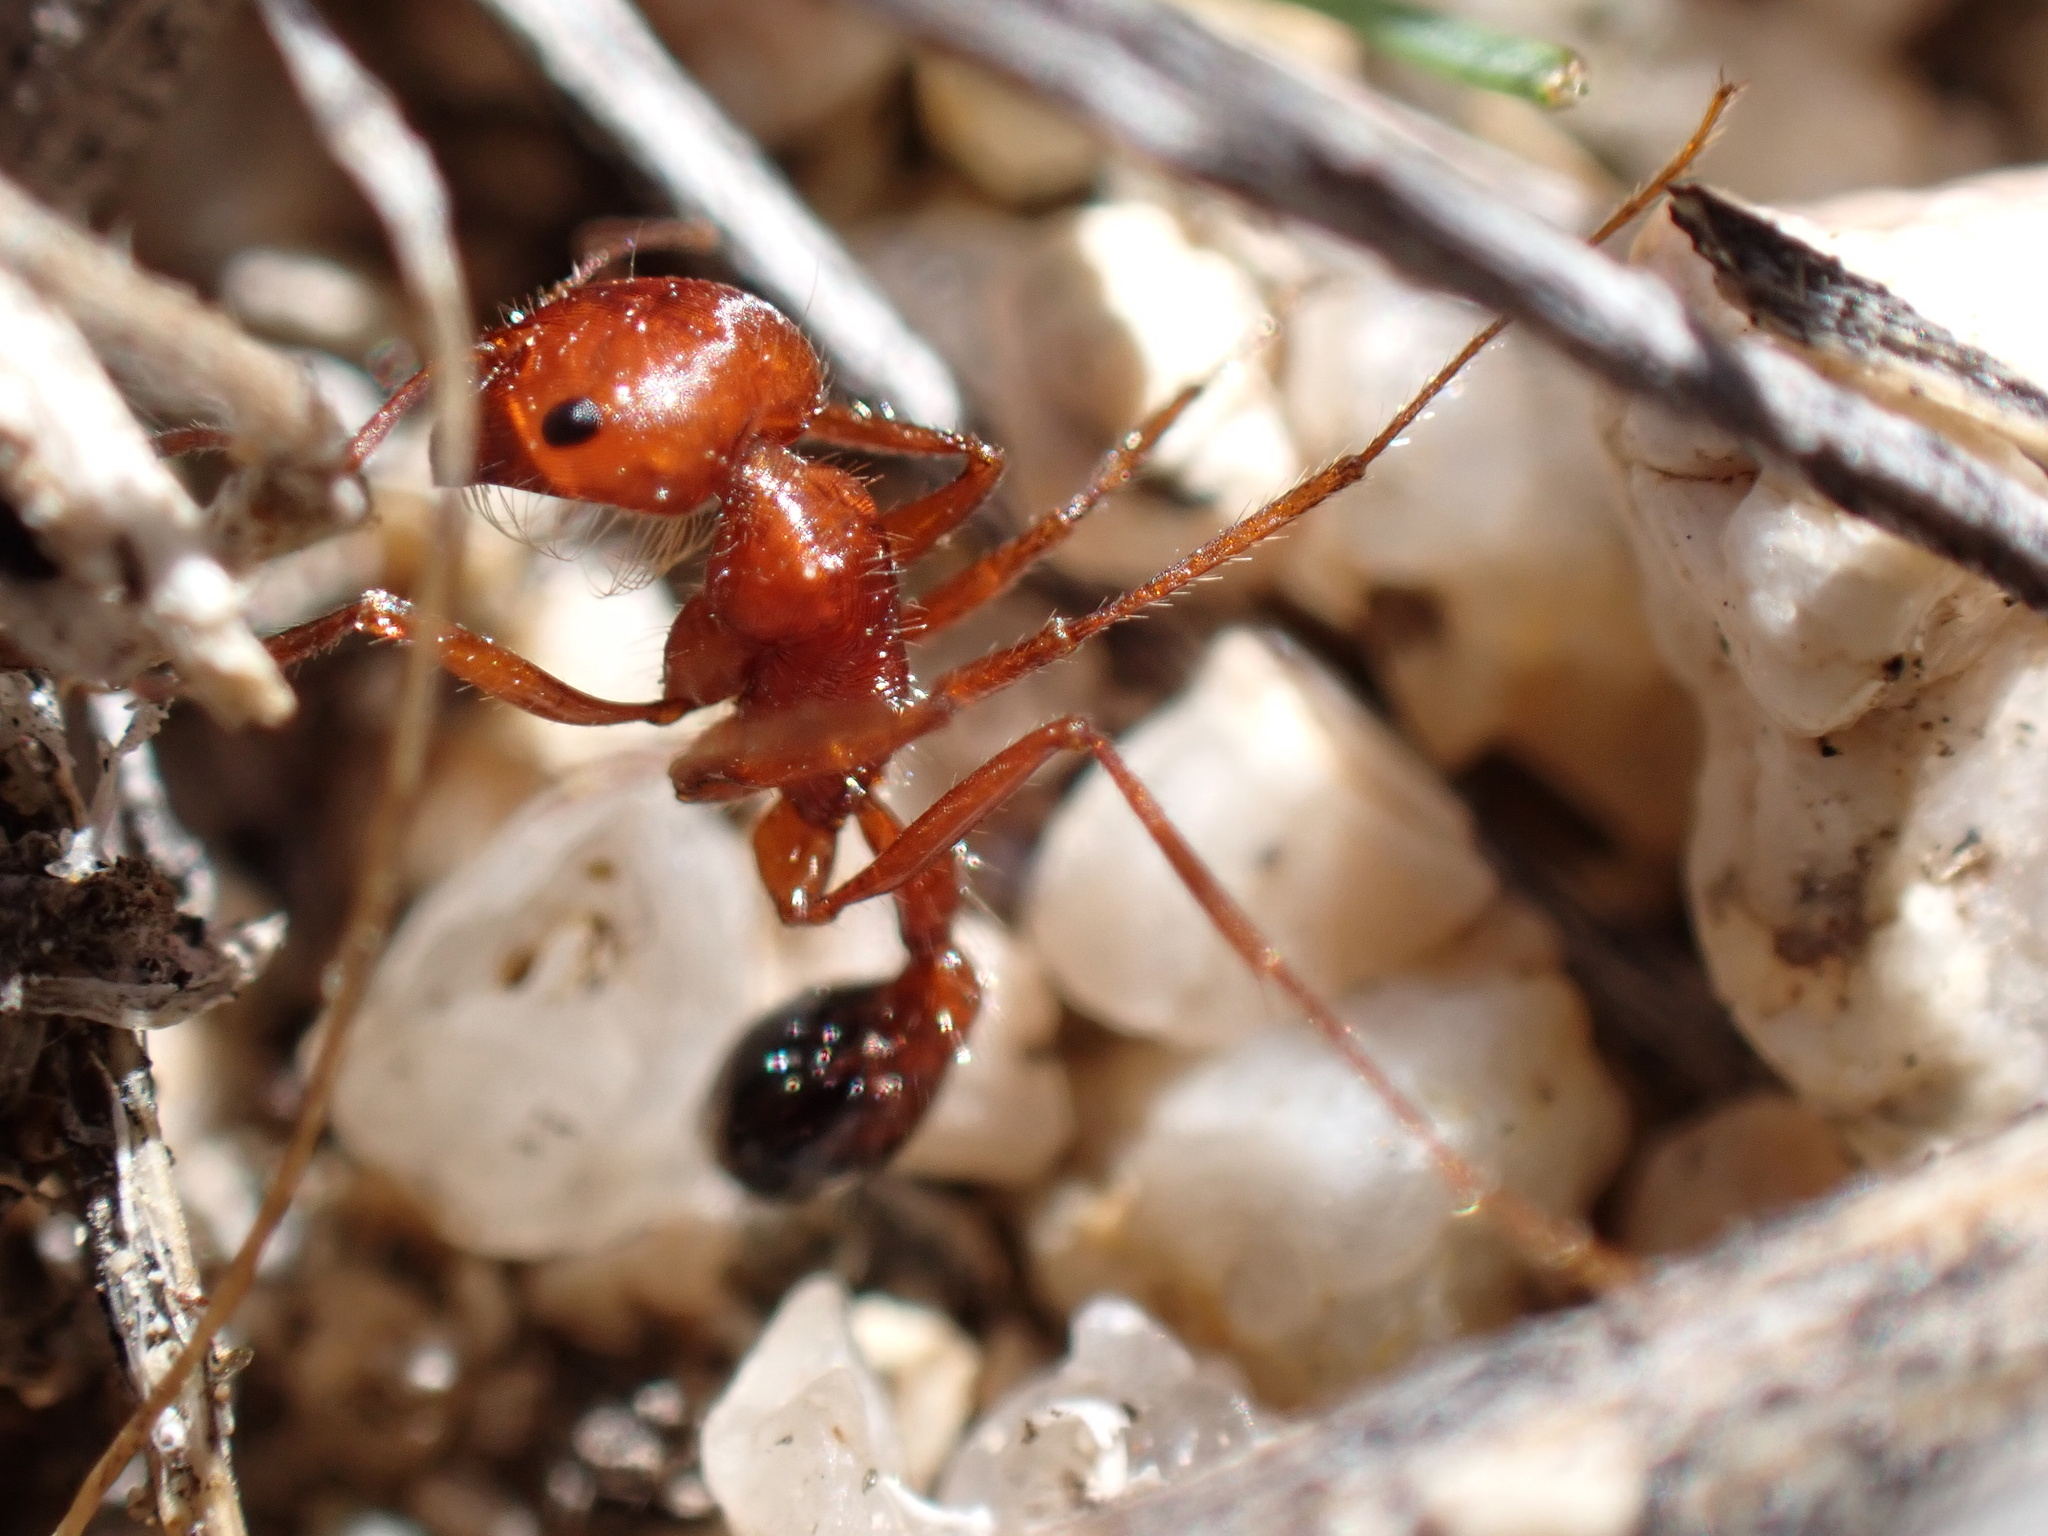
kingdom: Animalia
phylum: Arthropoda
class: Insecta
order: Hymenoptera
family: Formicidae
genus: Pogonomyrmex
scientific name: Pogonomyrmex californicus
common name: California harvester ant
